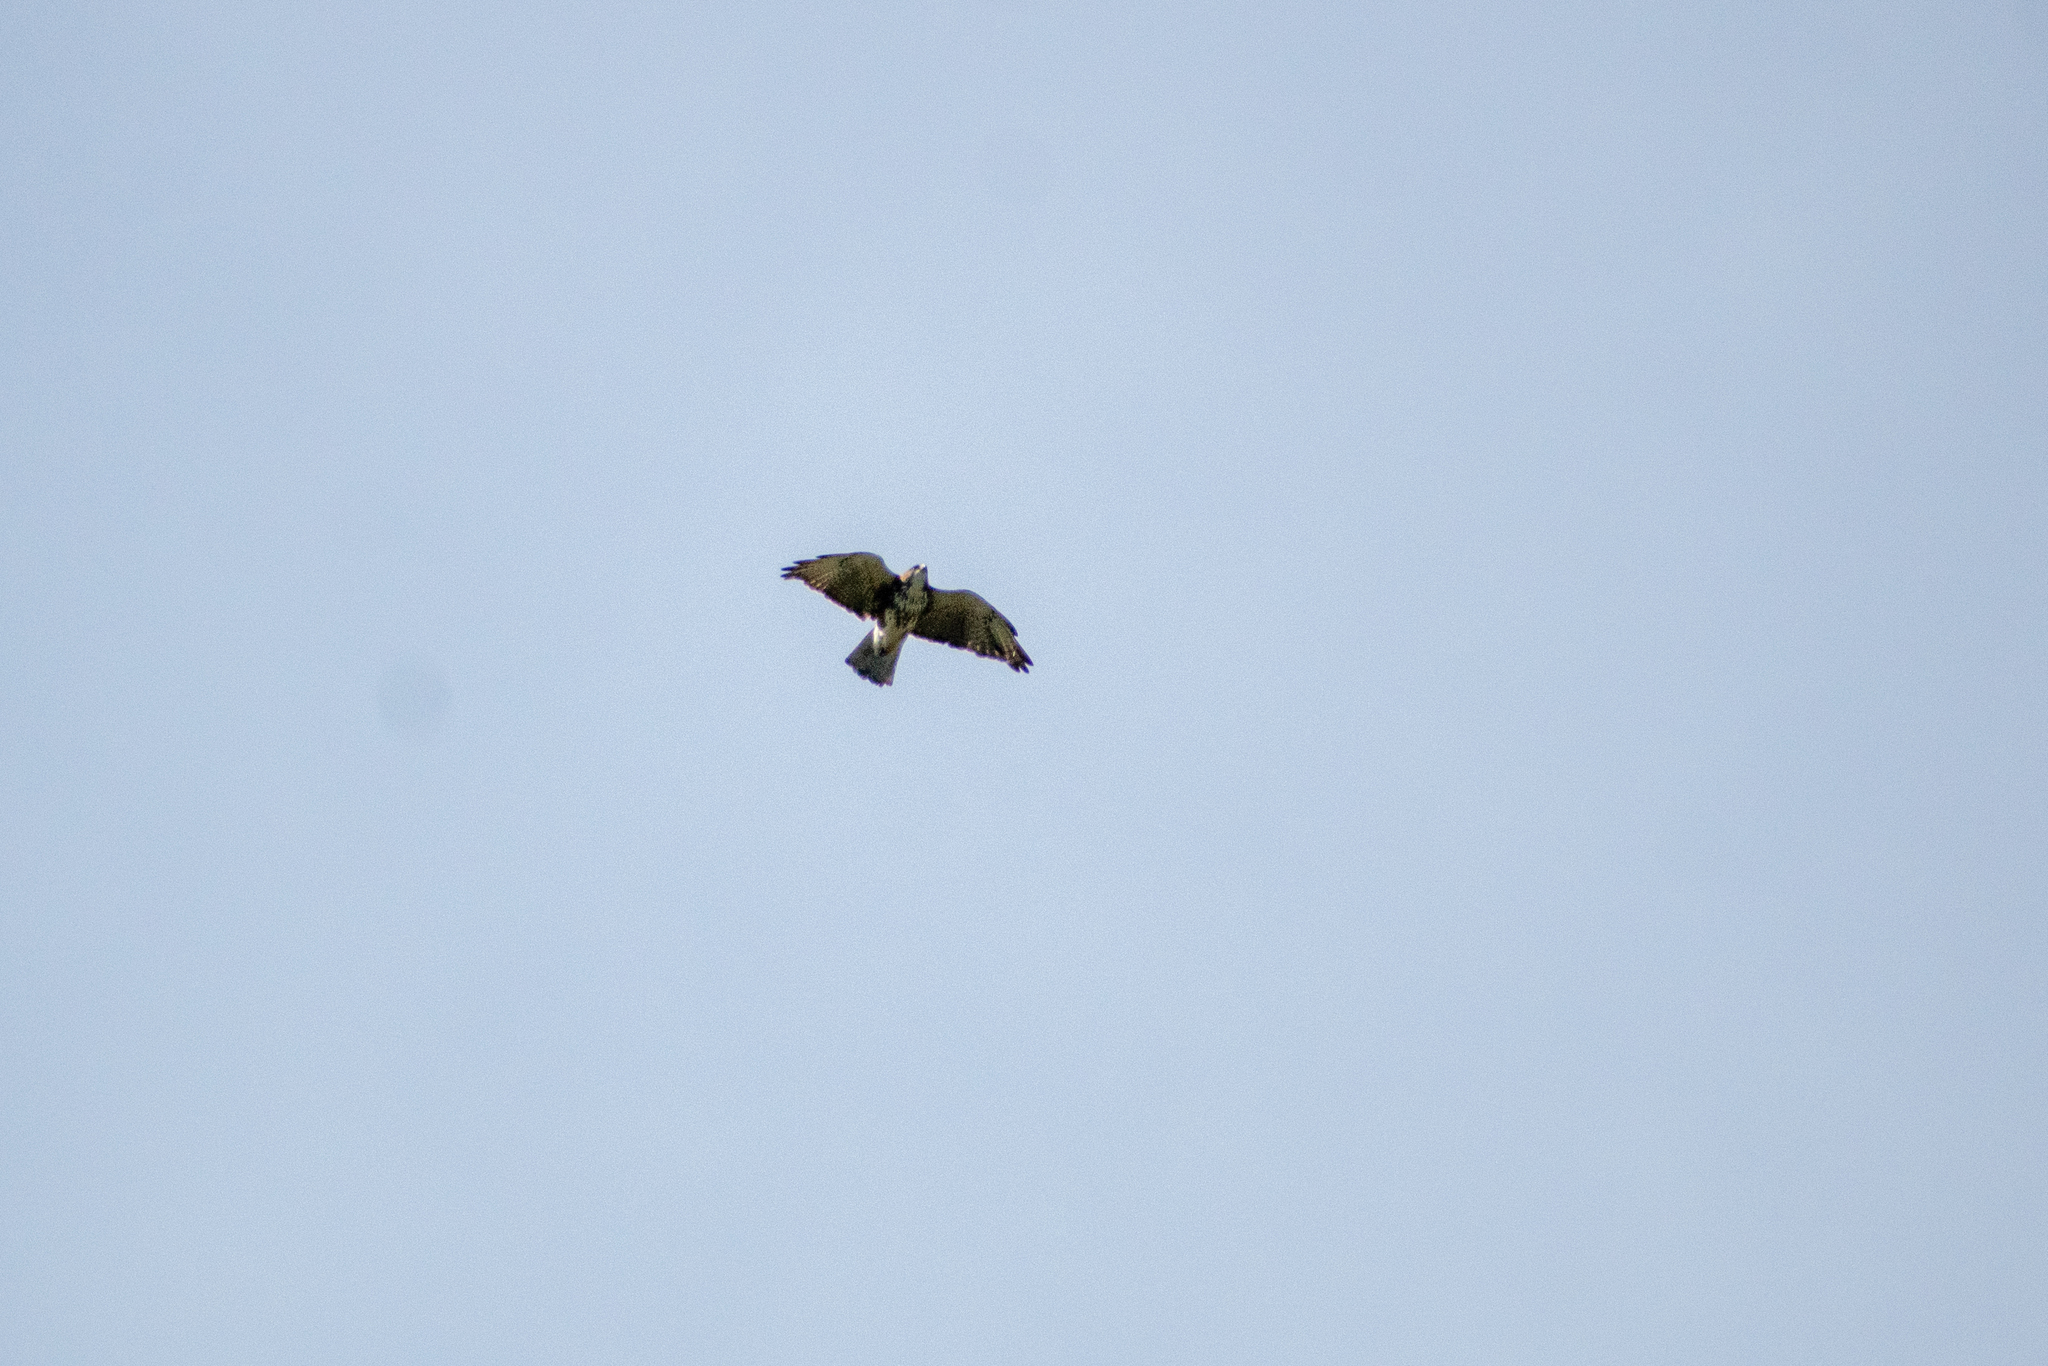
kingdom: Animalia
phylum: Chordata
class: Aves
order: Accipitriformes
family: Accipitridae
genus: Buteo
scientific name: Buteo albigula
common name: White-throated hawk
